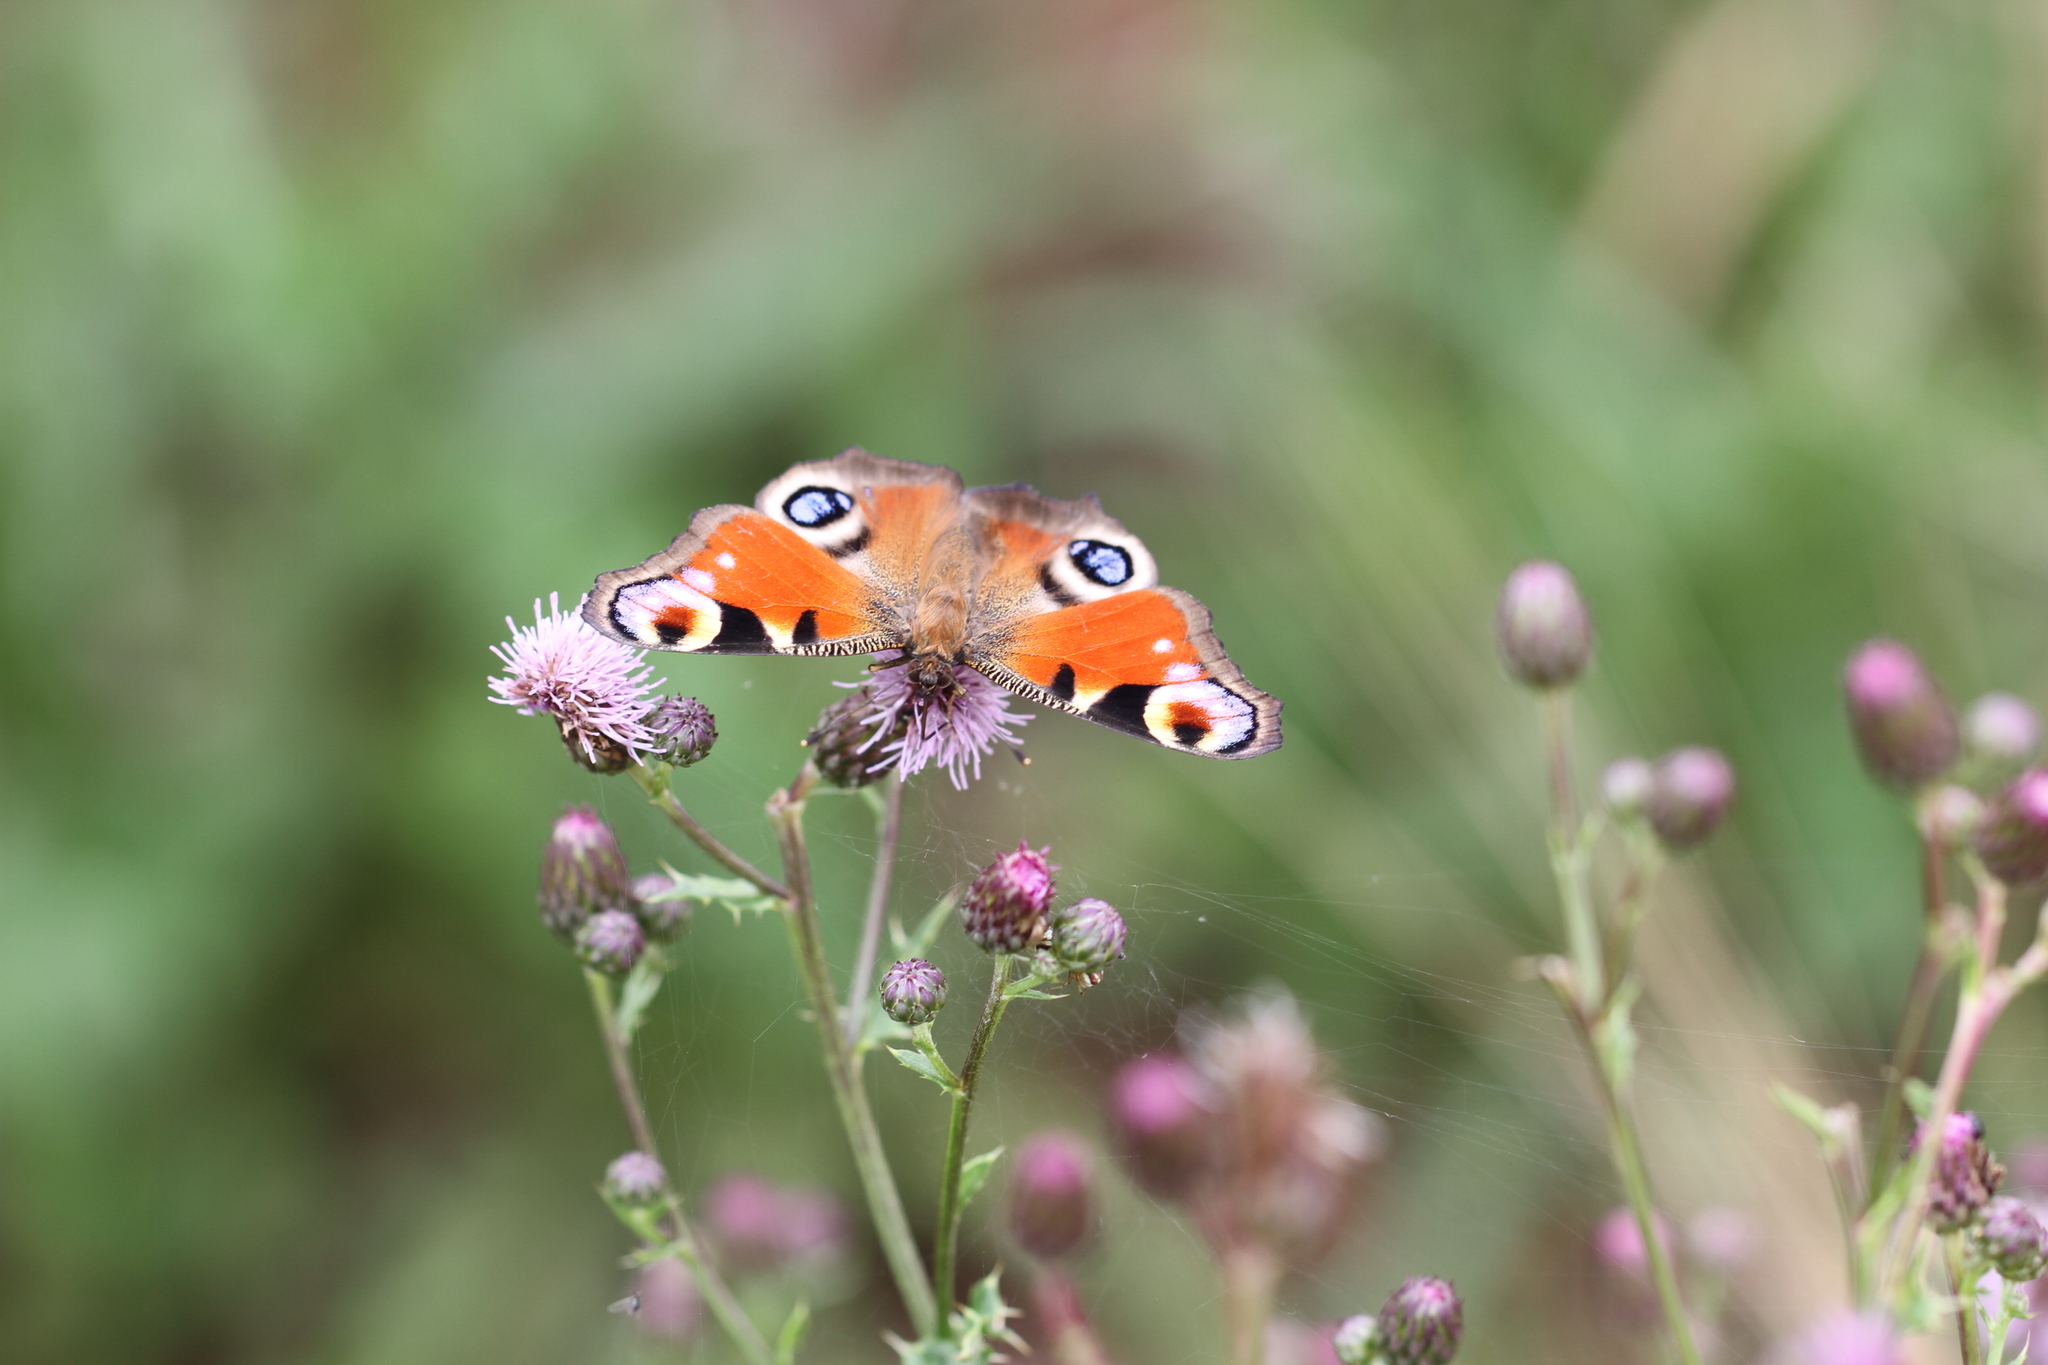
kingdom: Animalia
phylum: Arthropoda
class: Insecta
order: Lepidoptera
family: Nymphalidae
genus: Aglais
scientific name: Aglais io
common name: Peacock
